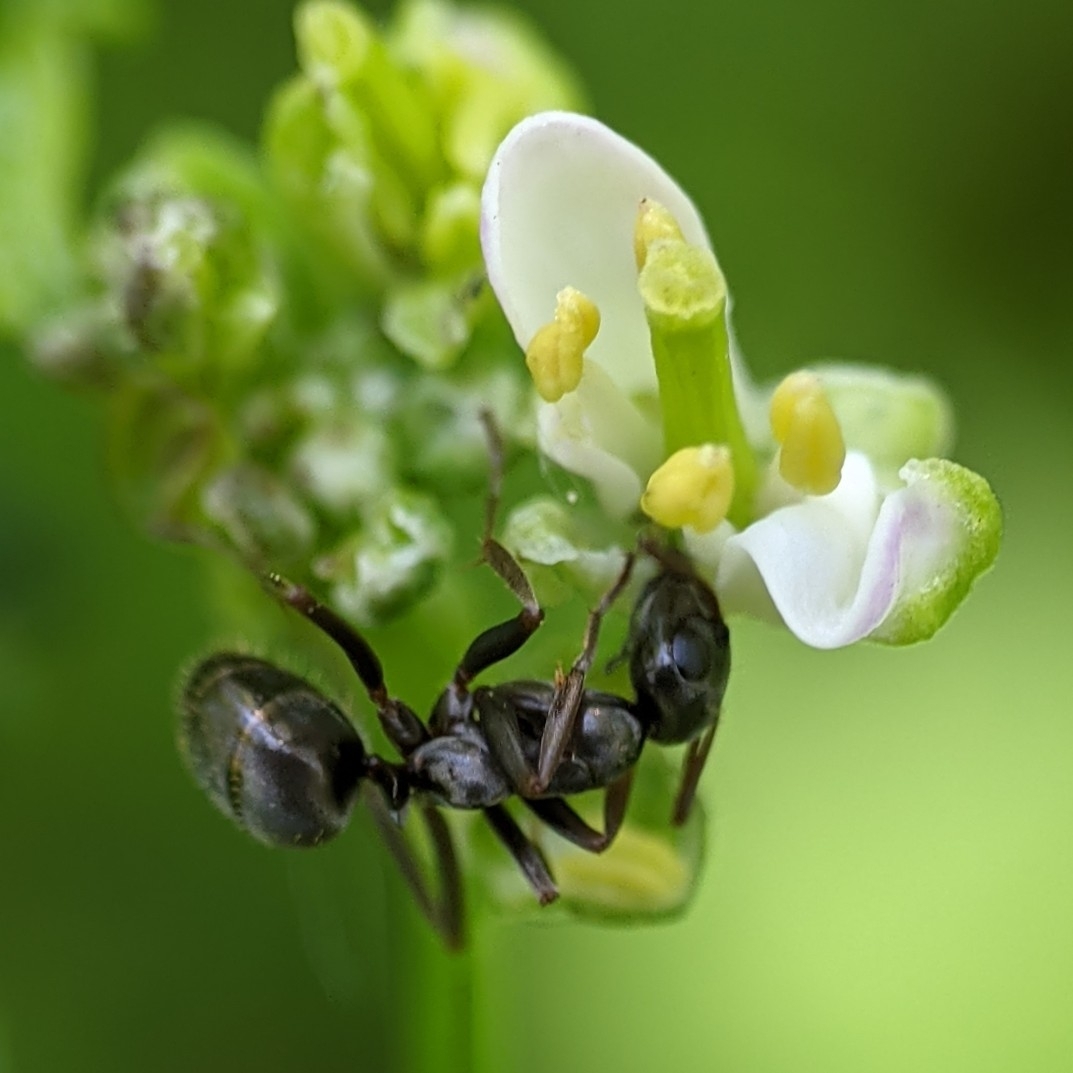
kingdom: Animalia
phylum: Arthropoda
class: Insecta
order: Hymenoptera
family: Formicidae
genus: Formica
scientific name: Formica
